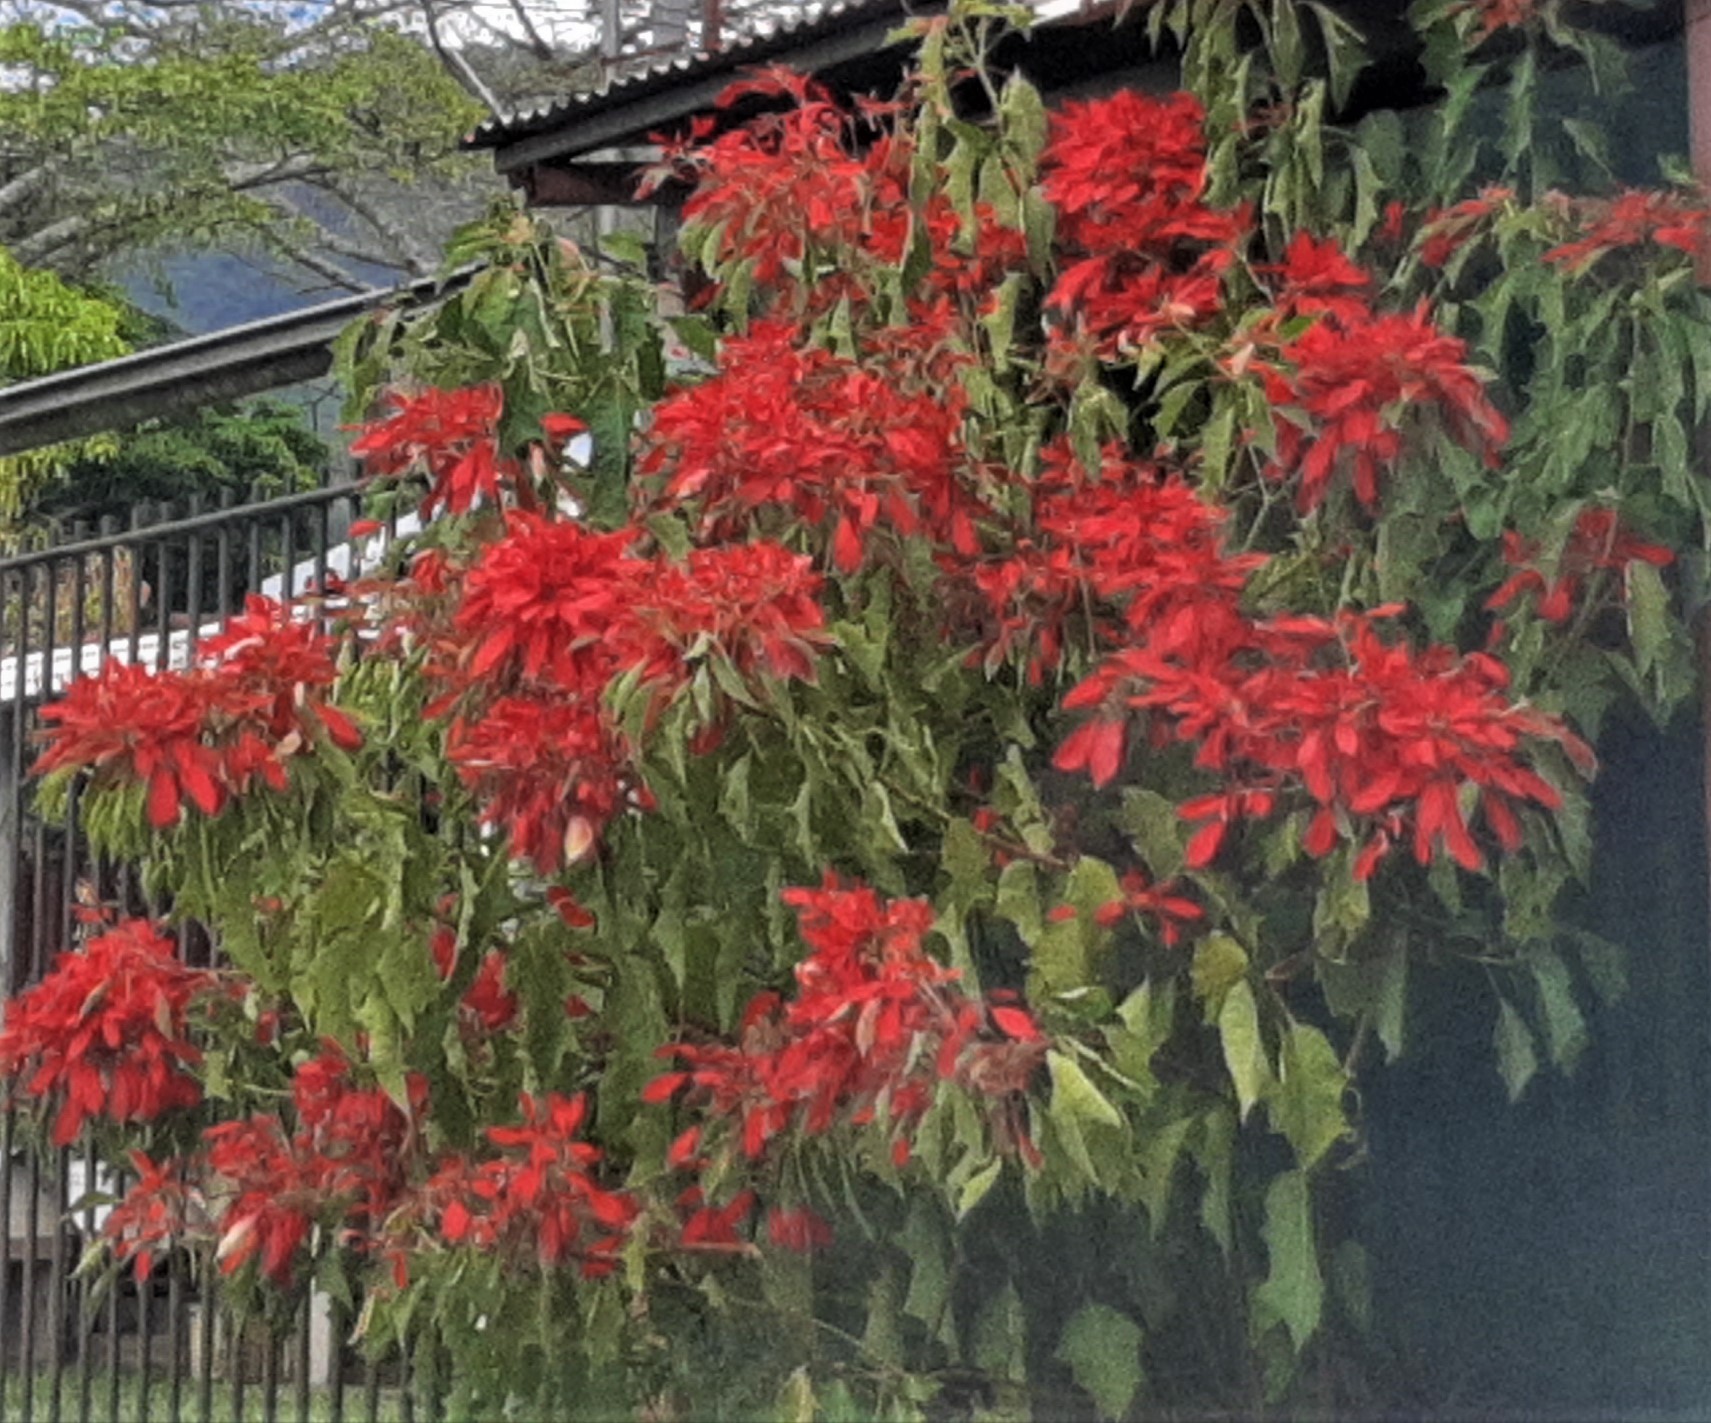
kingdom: Plantae
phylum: Tracheophyta
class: Magnoliopsida
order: Malpighiales
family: Euphorbiaceae
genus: Euphorbia
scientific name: Euphorbia pulcherrima
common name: Christmas-flower
